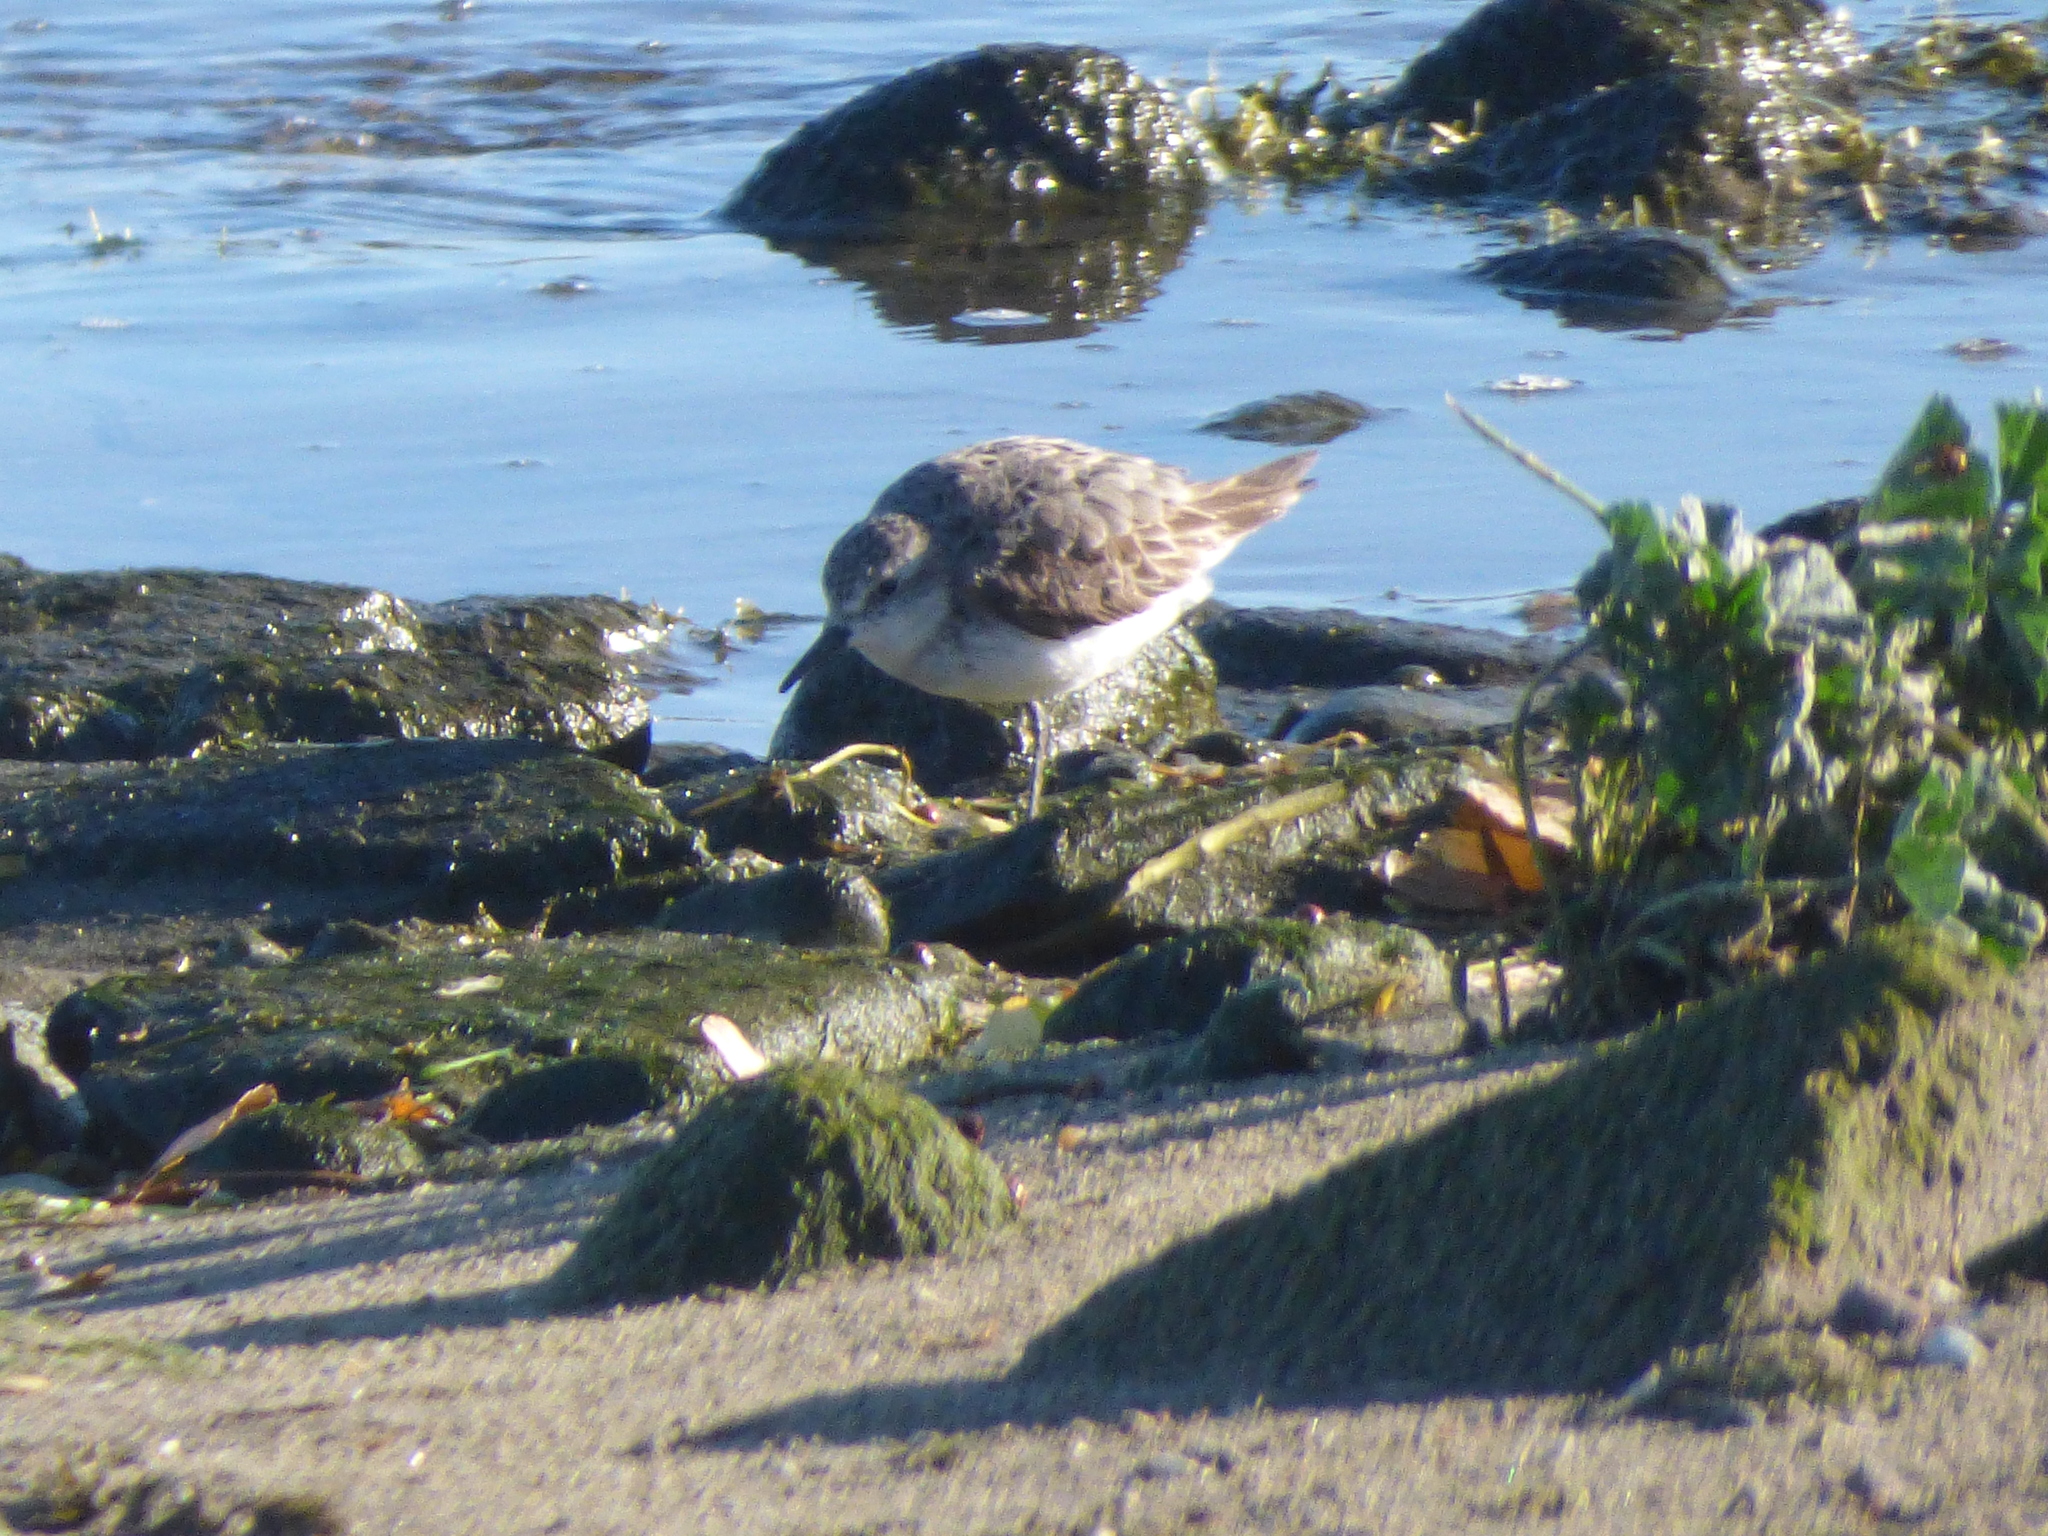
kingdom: Animalia
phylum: Chordata
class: Aves
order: Charadriiformes
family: Scolopacidae
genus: Calidris
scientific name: Calidris pusilla
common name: Semipalmated sandpiper
